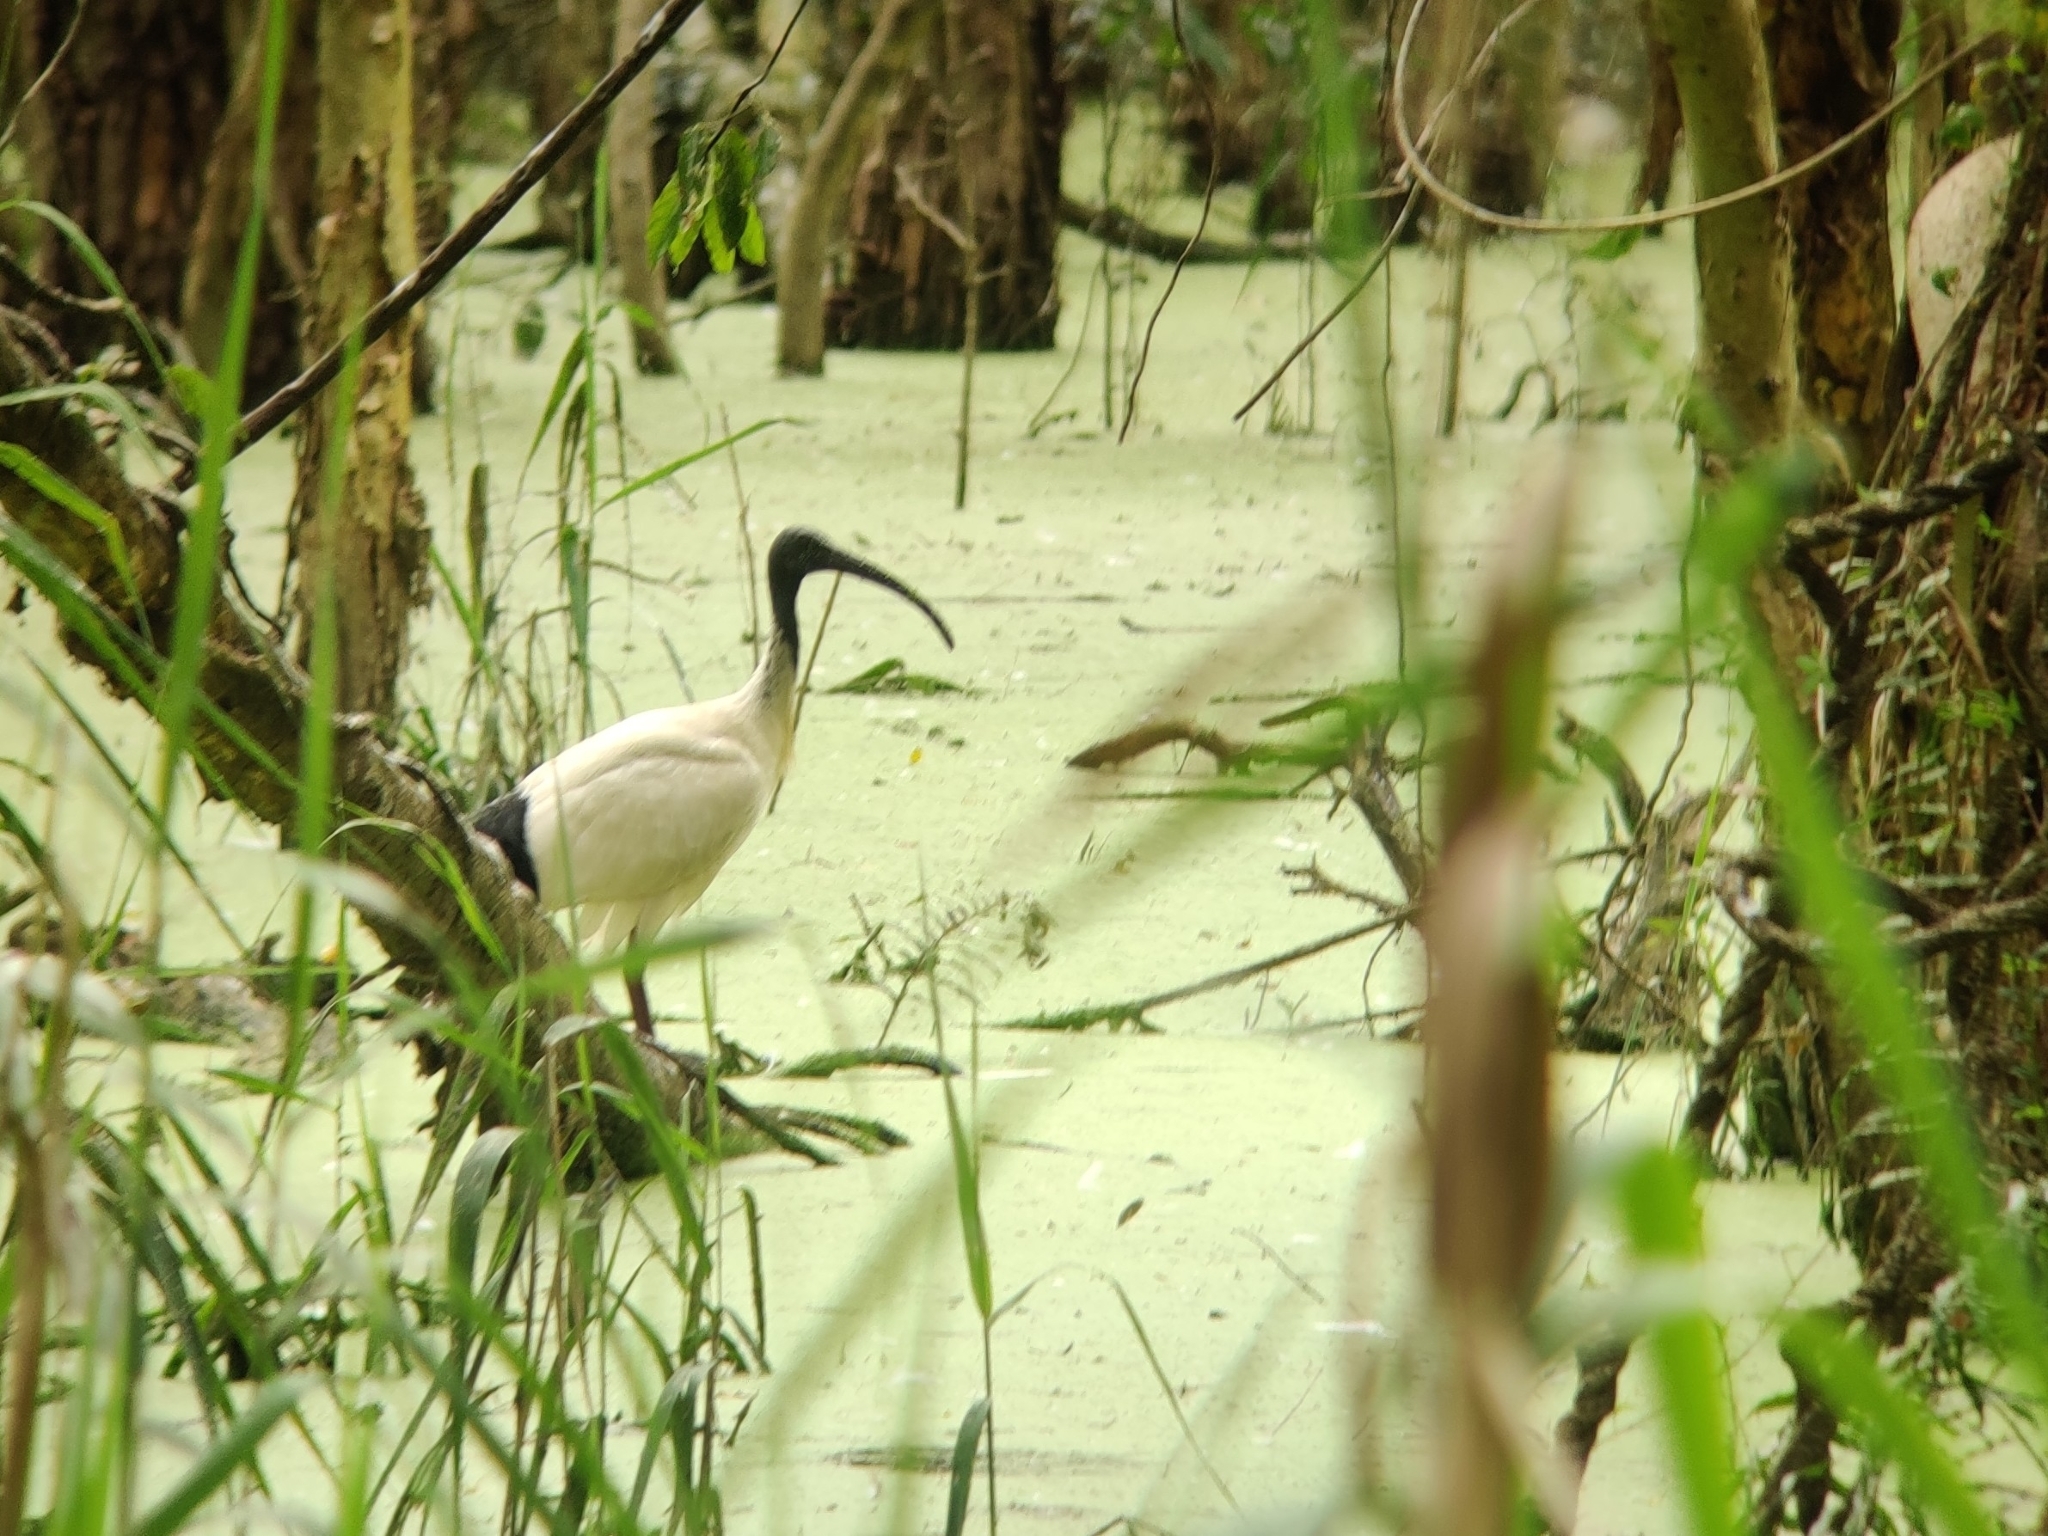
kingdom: Animalia
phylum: Chordata
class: Aves
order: Pelecaniformes
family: Threskiornithidae
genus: Threskiornis
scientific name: Threskiornis molucca
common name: Australian white ibis
